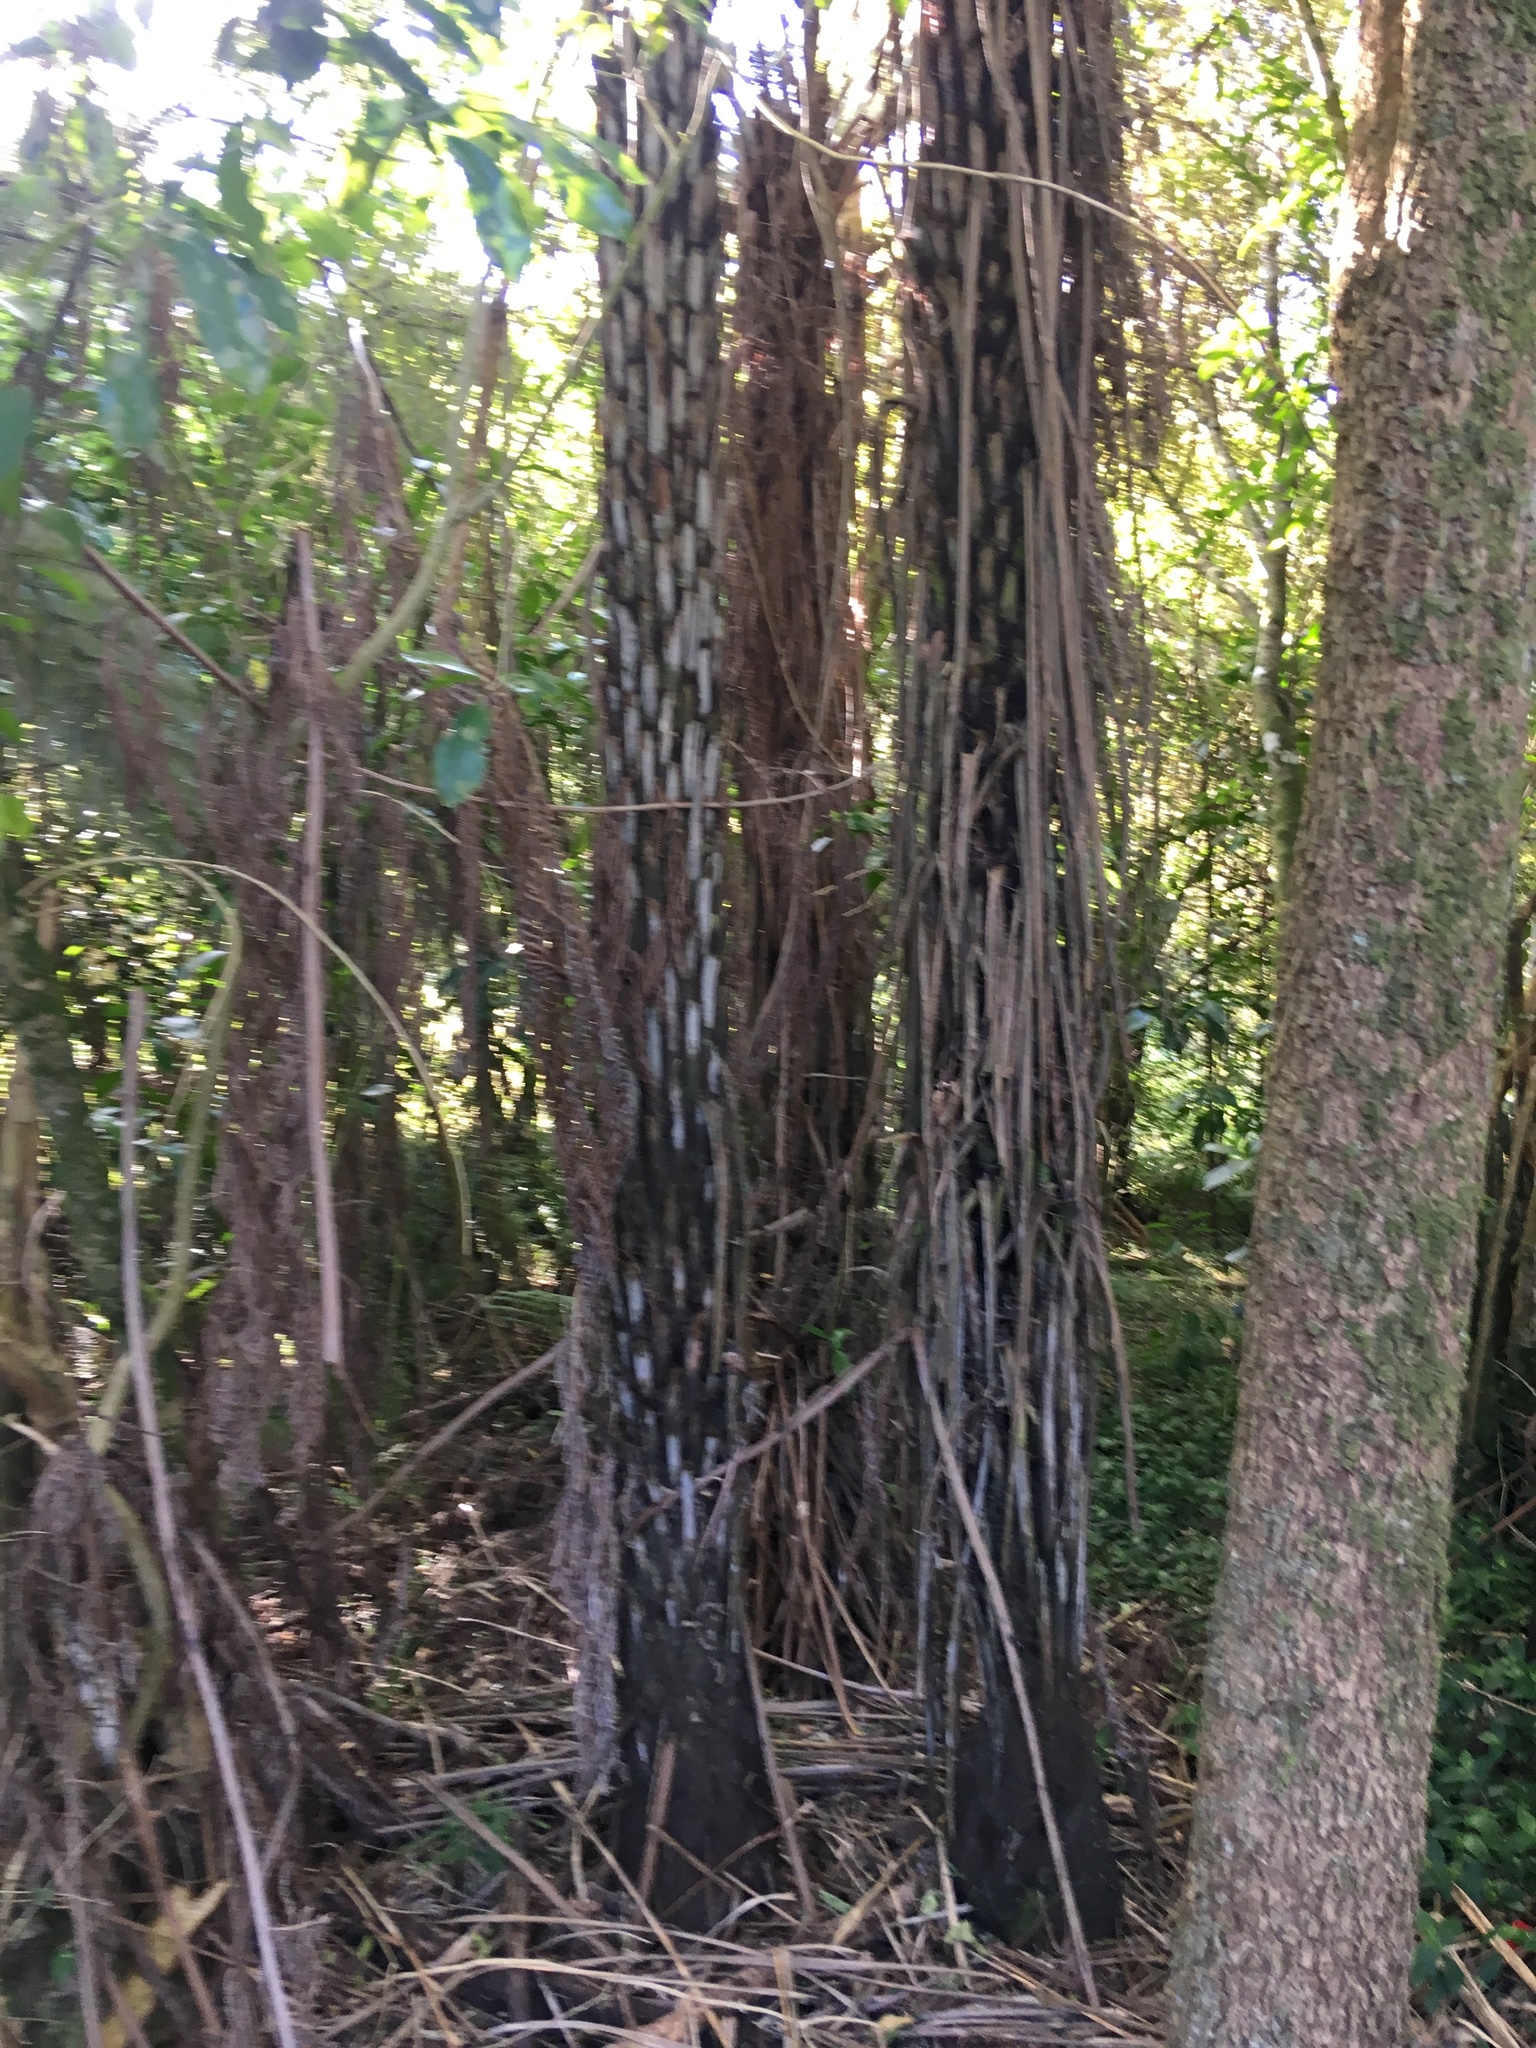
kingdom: Plantae
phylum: Tracheophyta
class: Polypodiopsida
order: Cyatheales
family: Cyatheaceae
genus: Alsophila
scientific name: Alsophila dealbata
